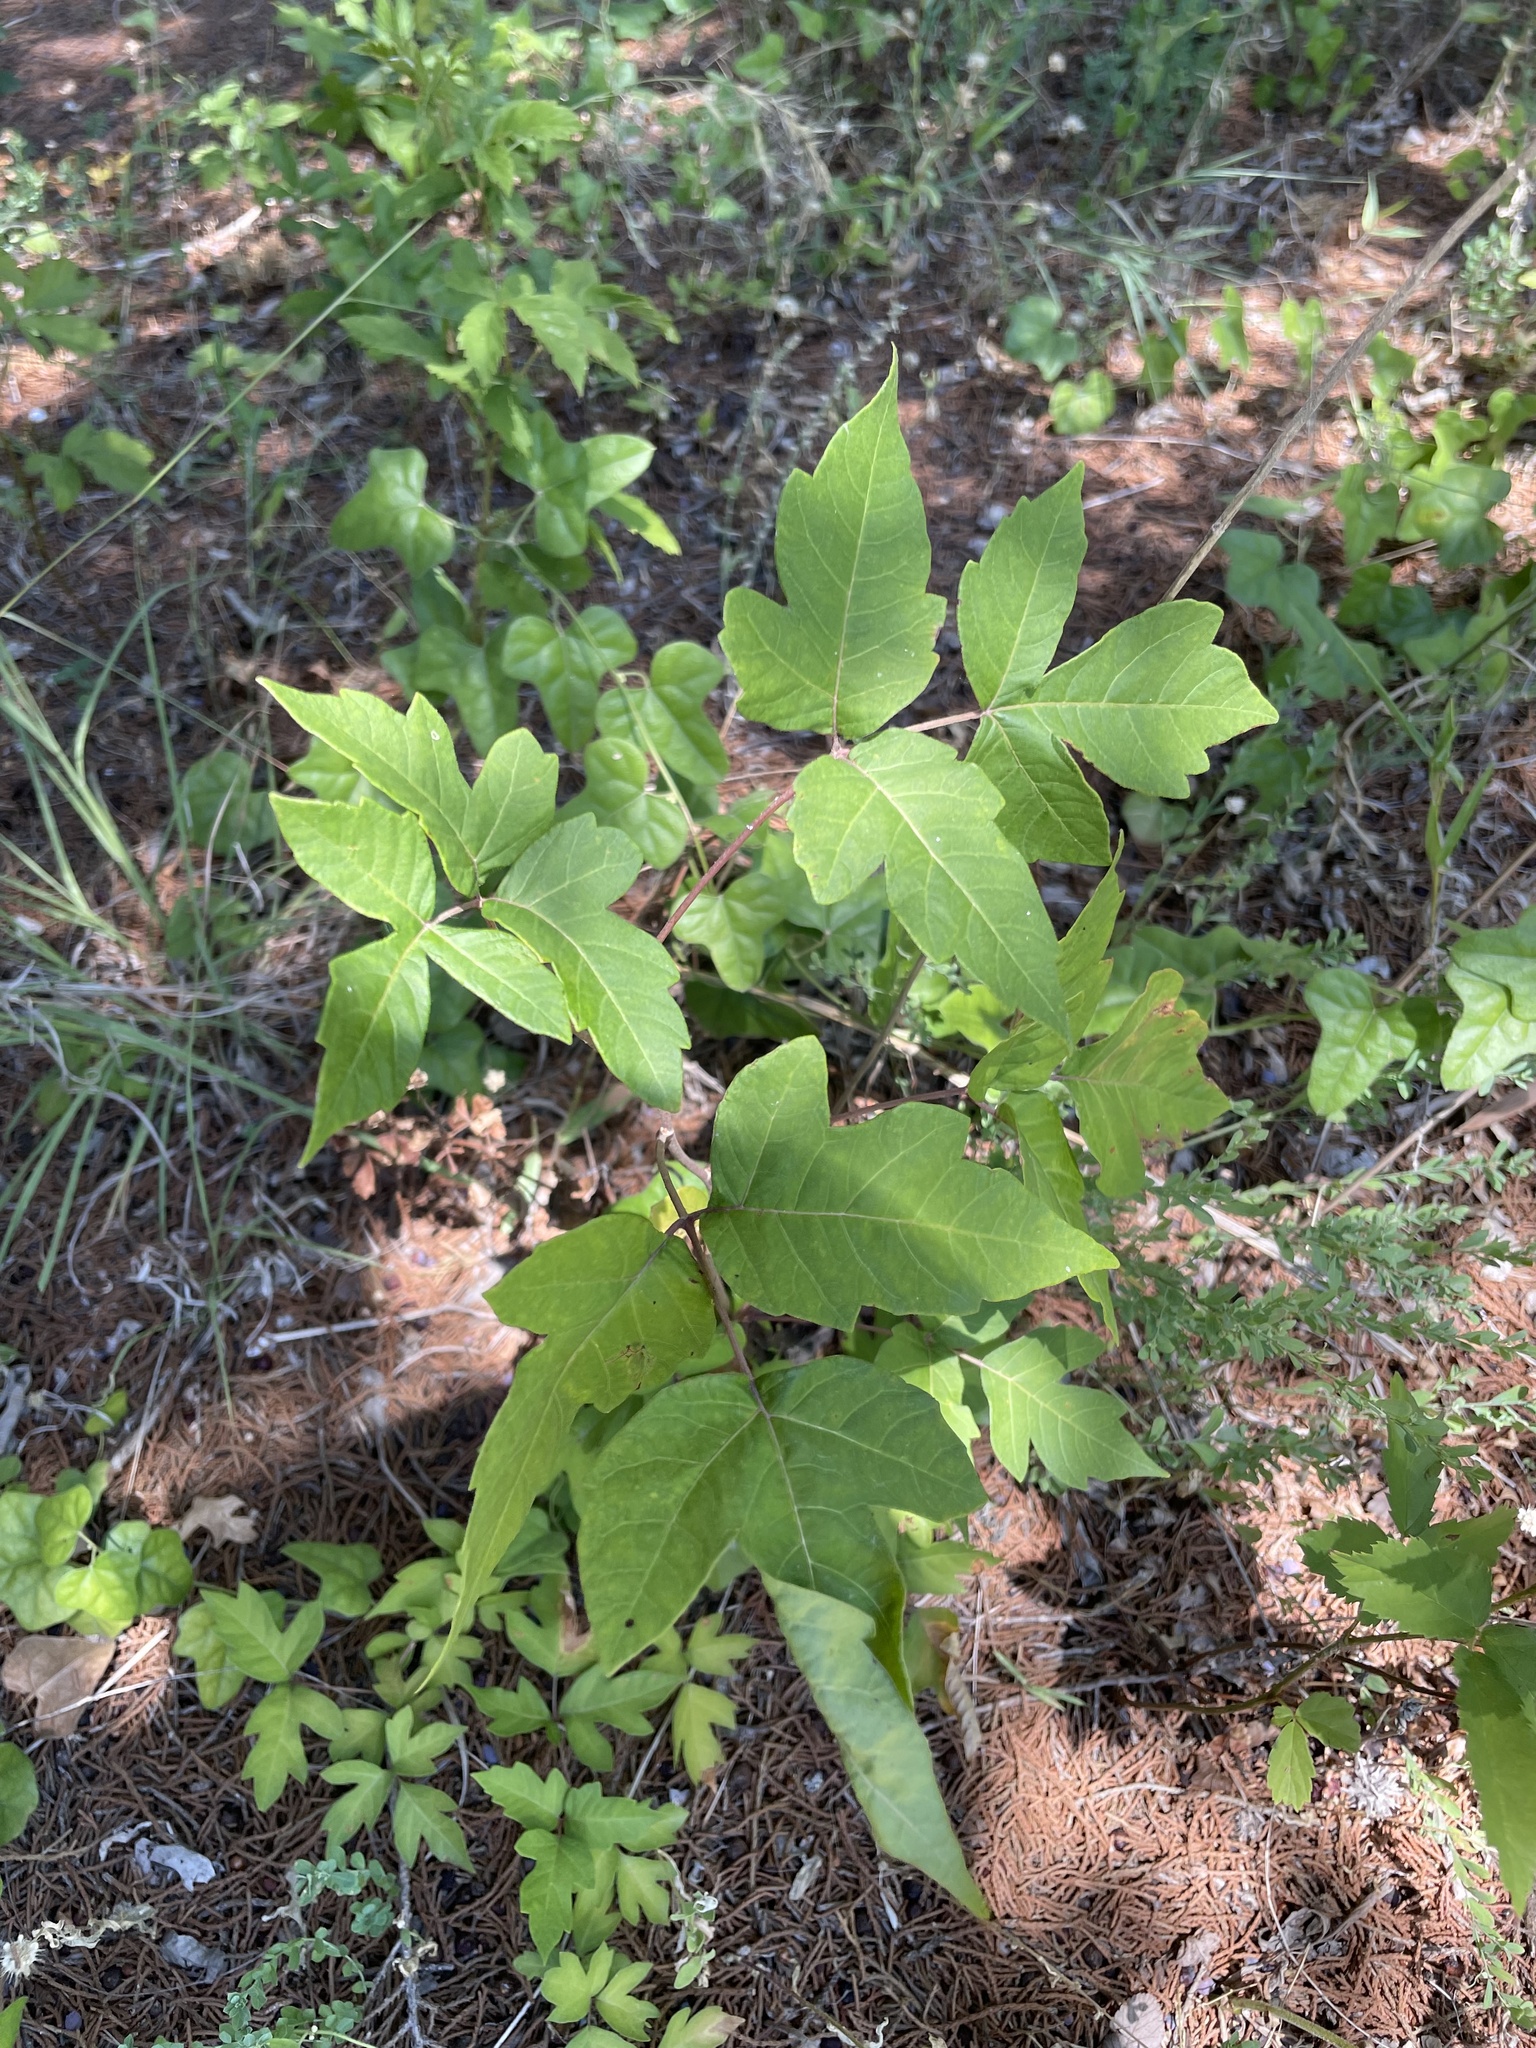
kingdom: Plantae
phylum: Tracheophyta
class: Magnoliopsida
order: Sapindales
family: Anacardiaceae
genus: Toxicodendron
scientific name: Toxicodendron radicans
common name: Poison ivy
